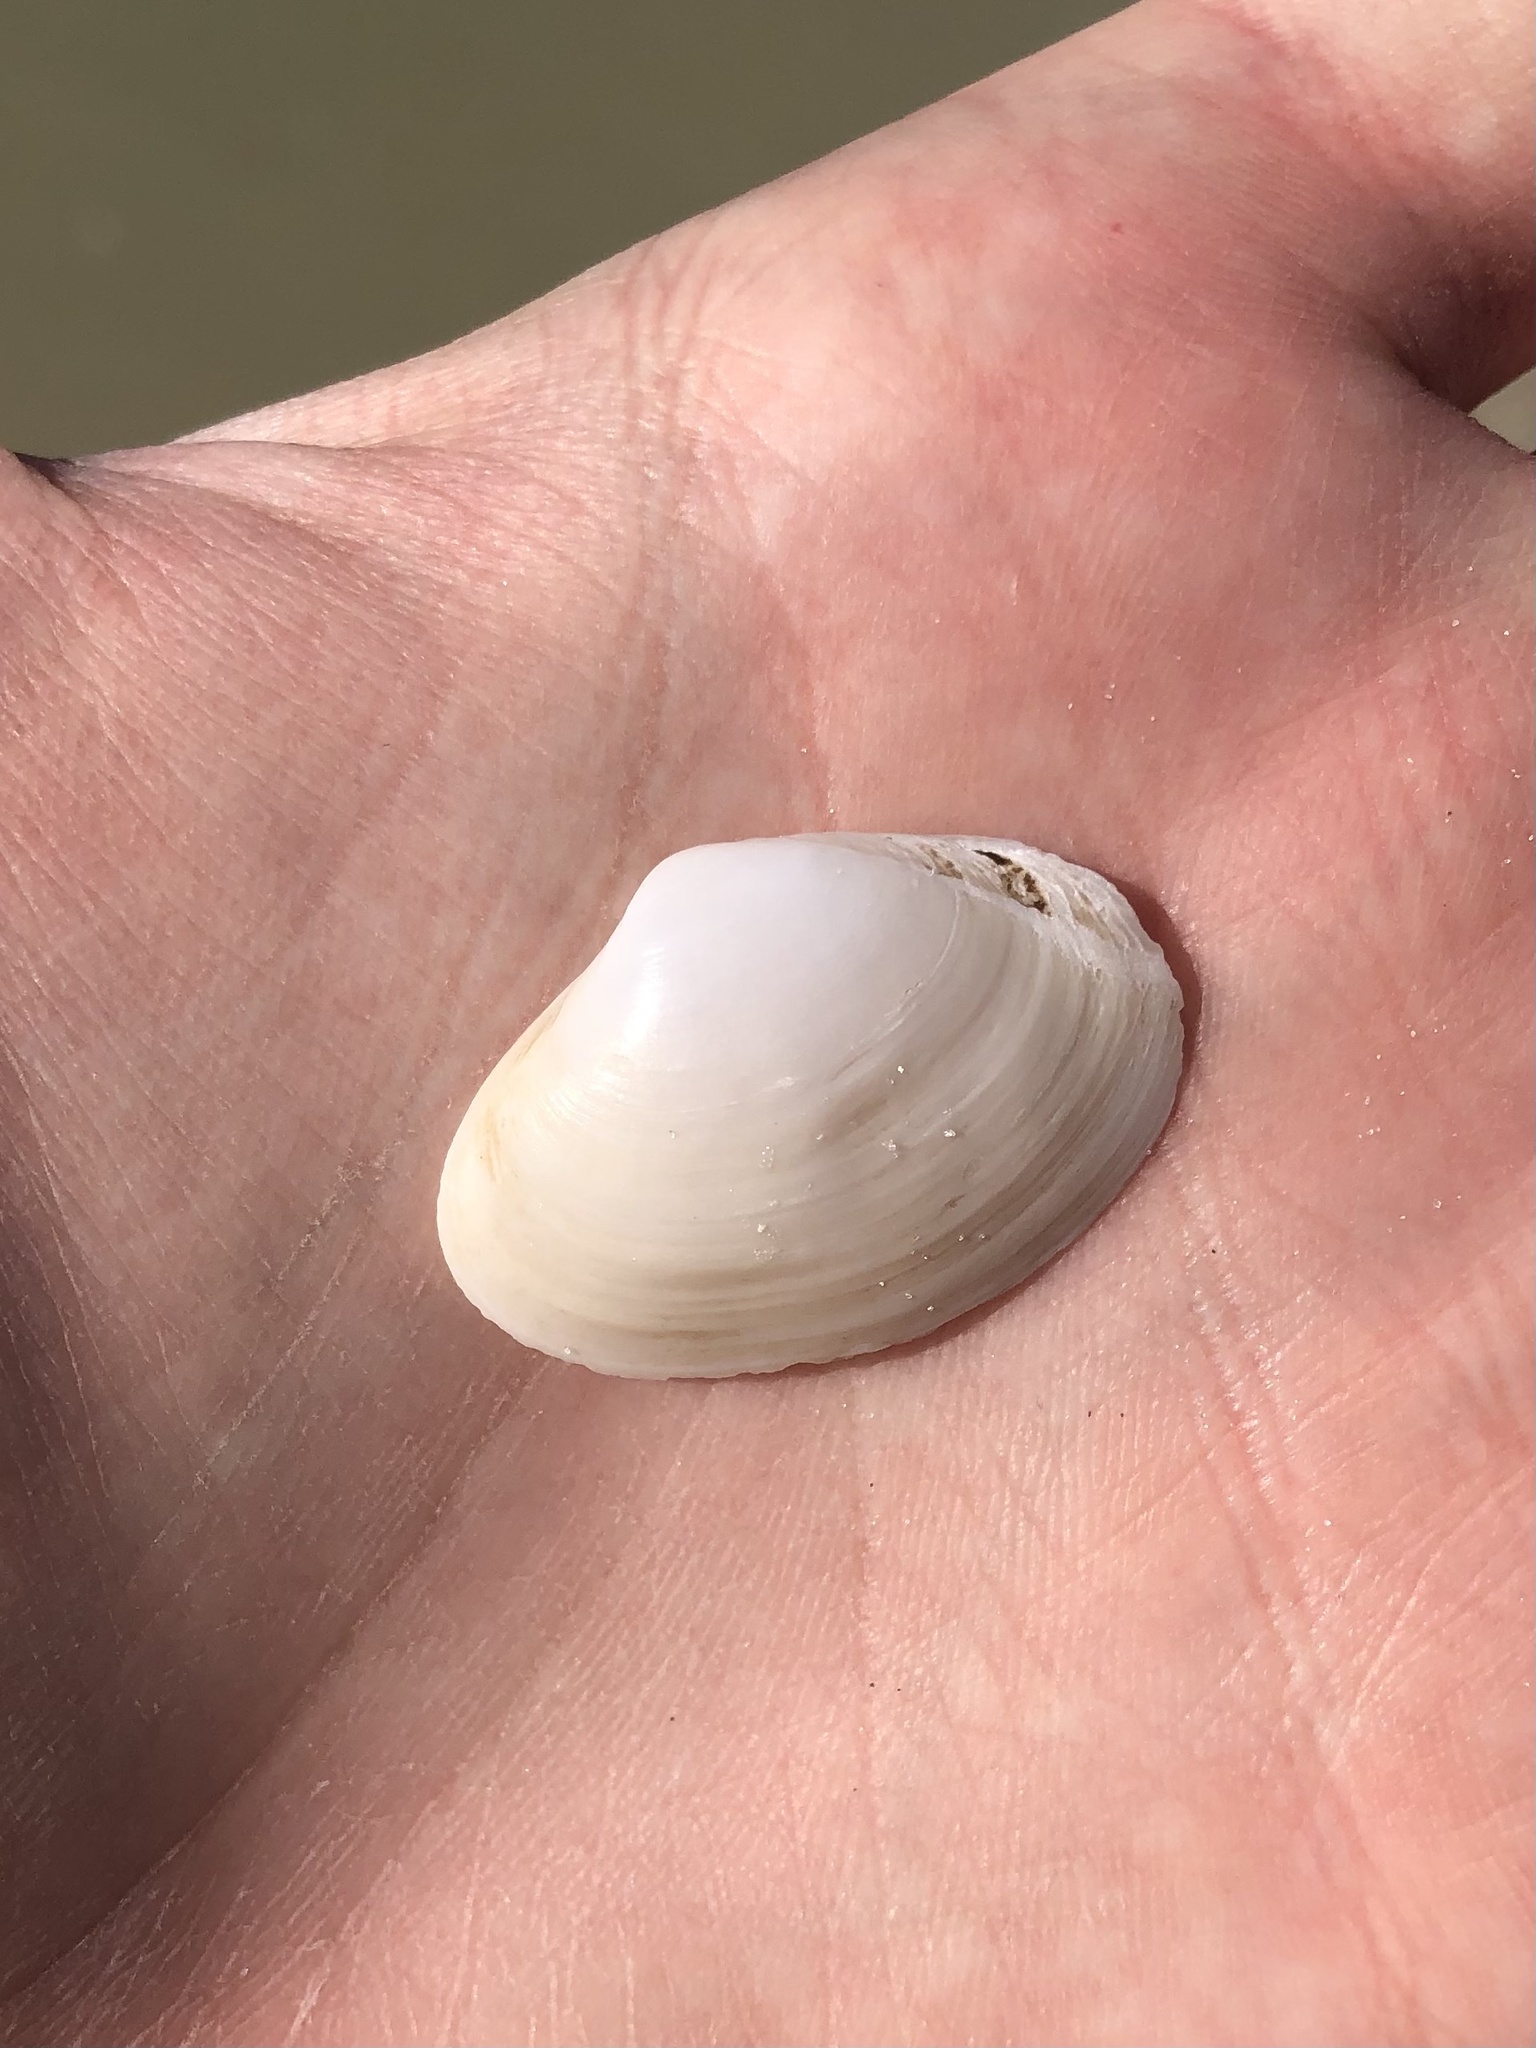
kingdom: Animalia
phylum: Mollusca
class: Bivalvia
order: Venerida
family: Mactridae
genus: Mactrotoma
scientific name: Mactrotoma fragilis
